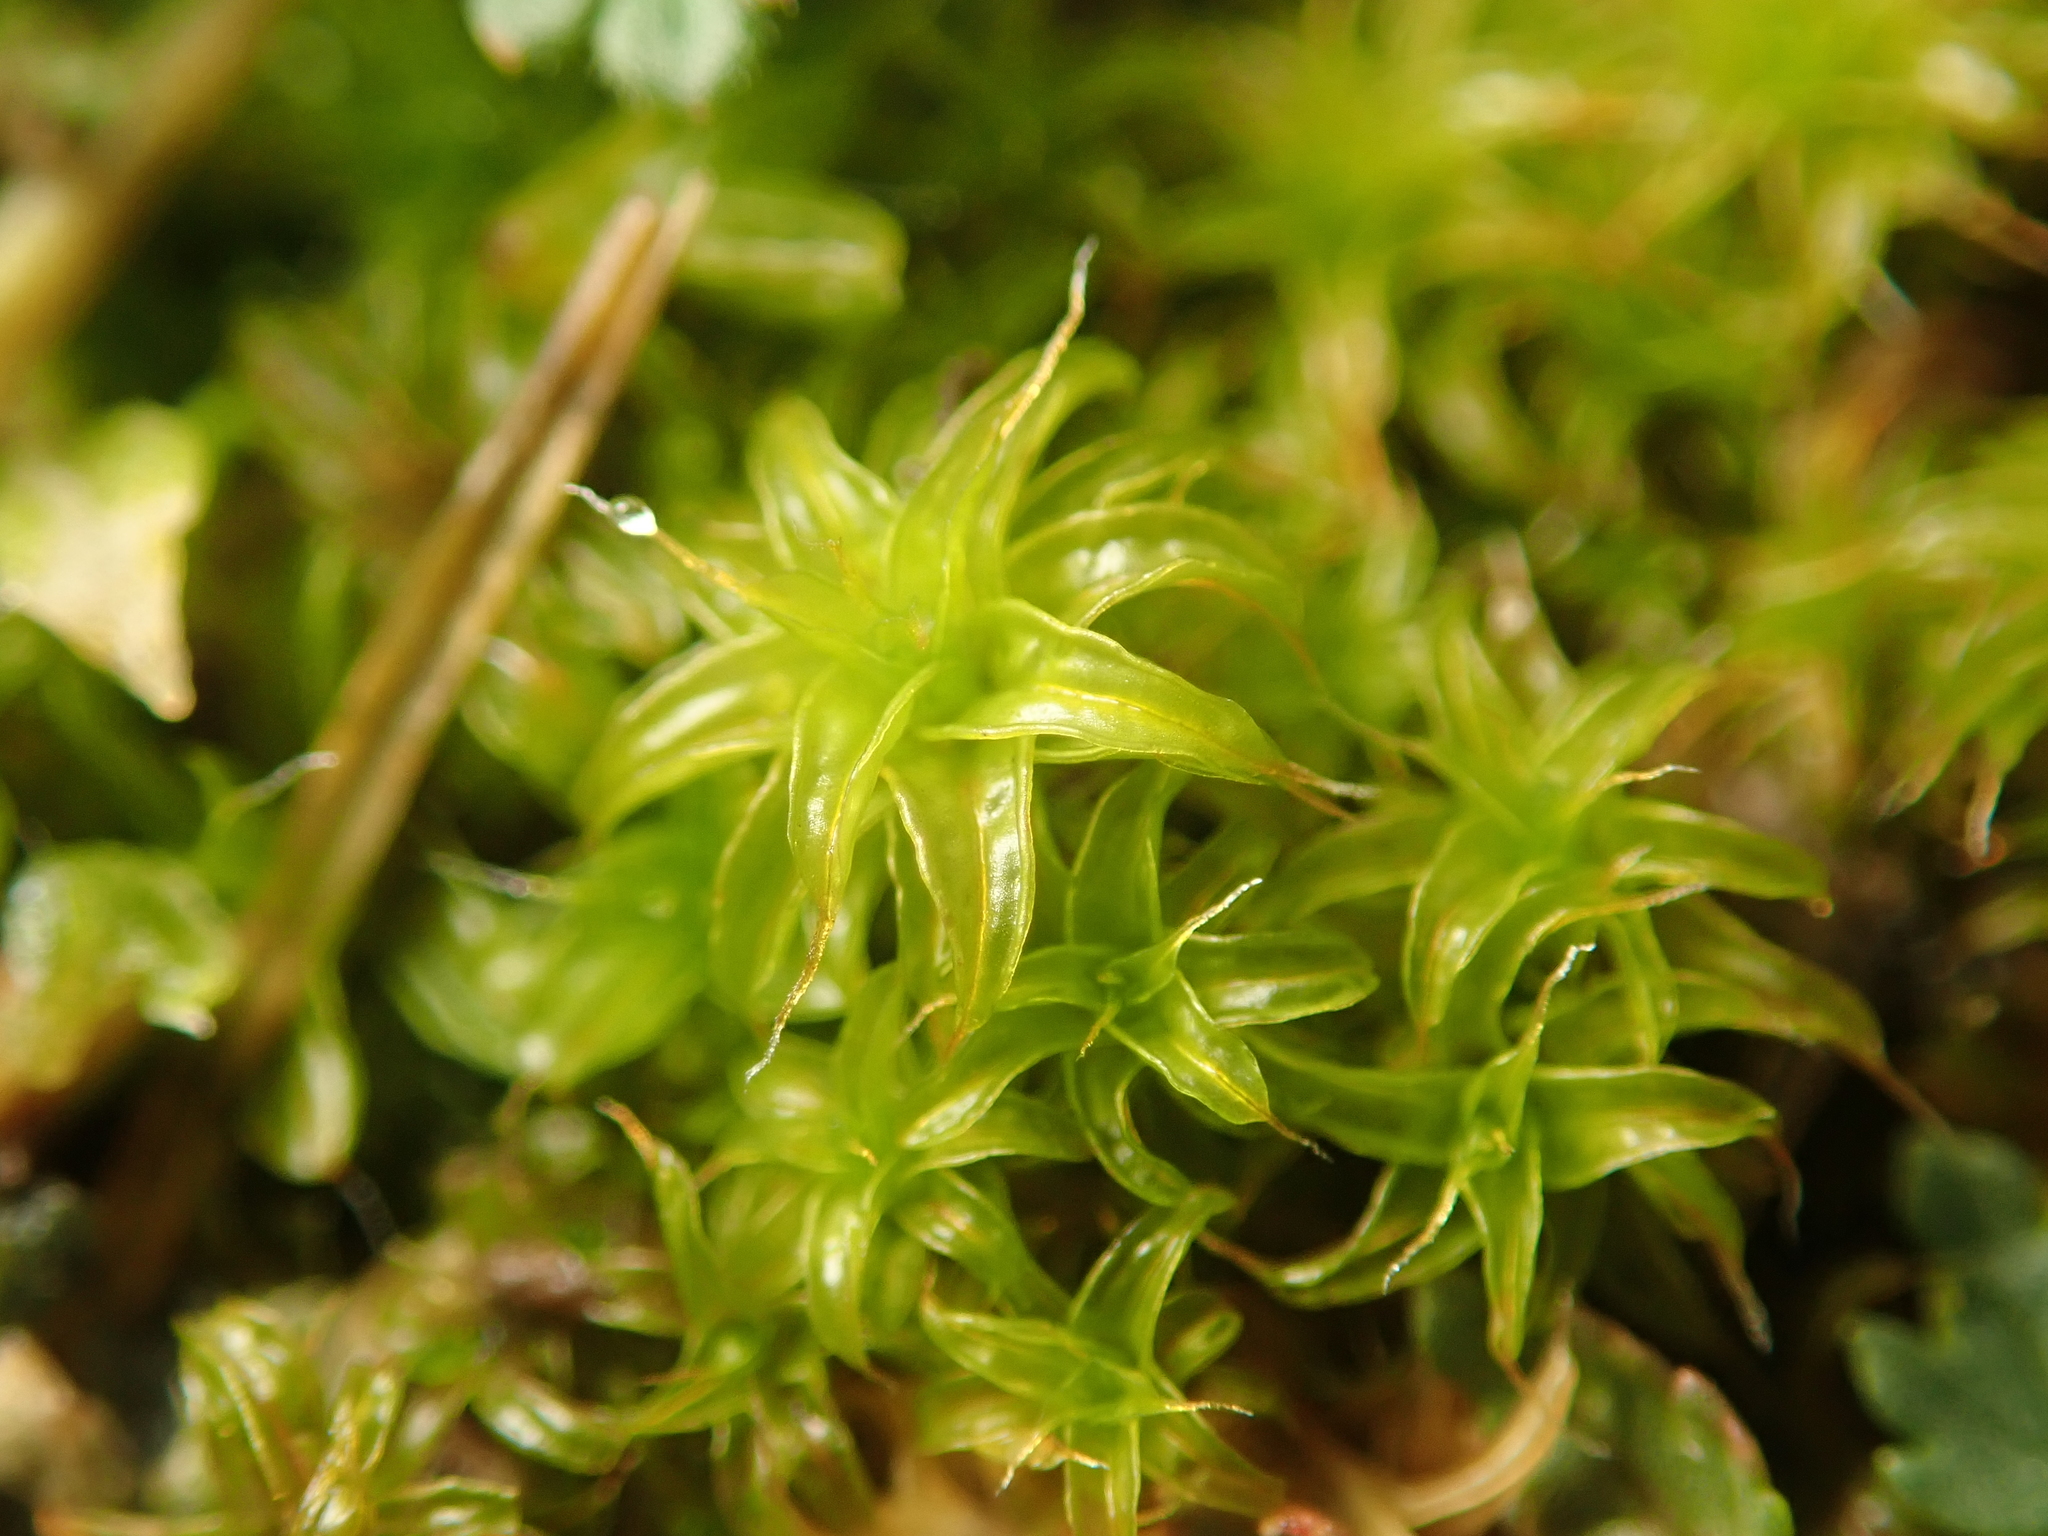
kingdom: Plantae
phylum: Bryophyta
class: Bryopsida
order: Pottiales
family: Pottiaceae
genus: Syntrichia
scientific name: Syntrichia ruralis
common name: Sidewalk screw moss
